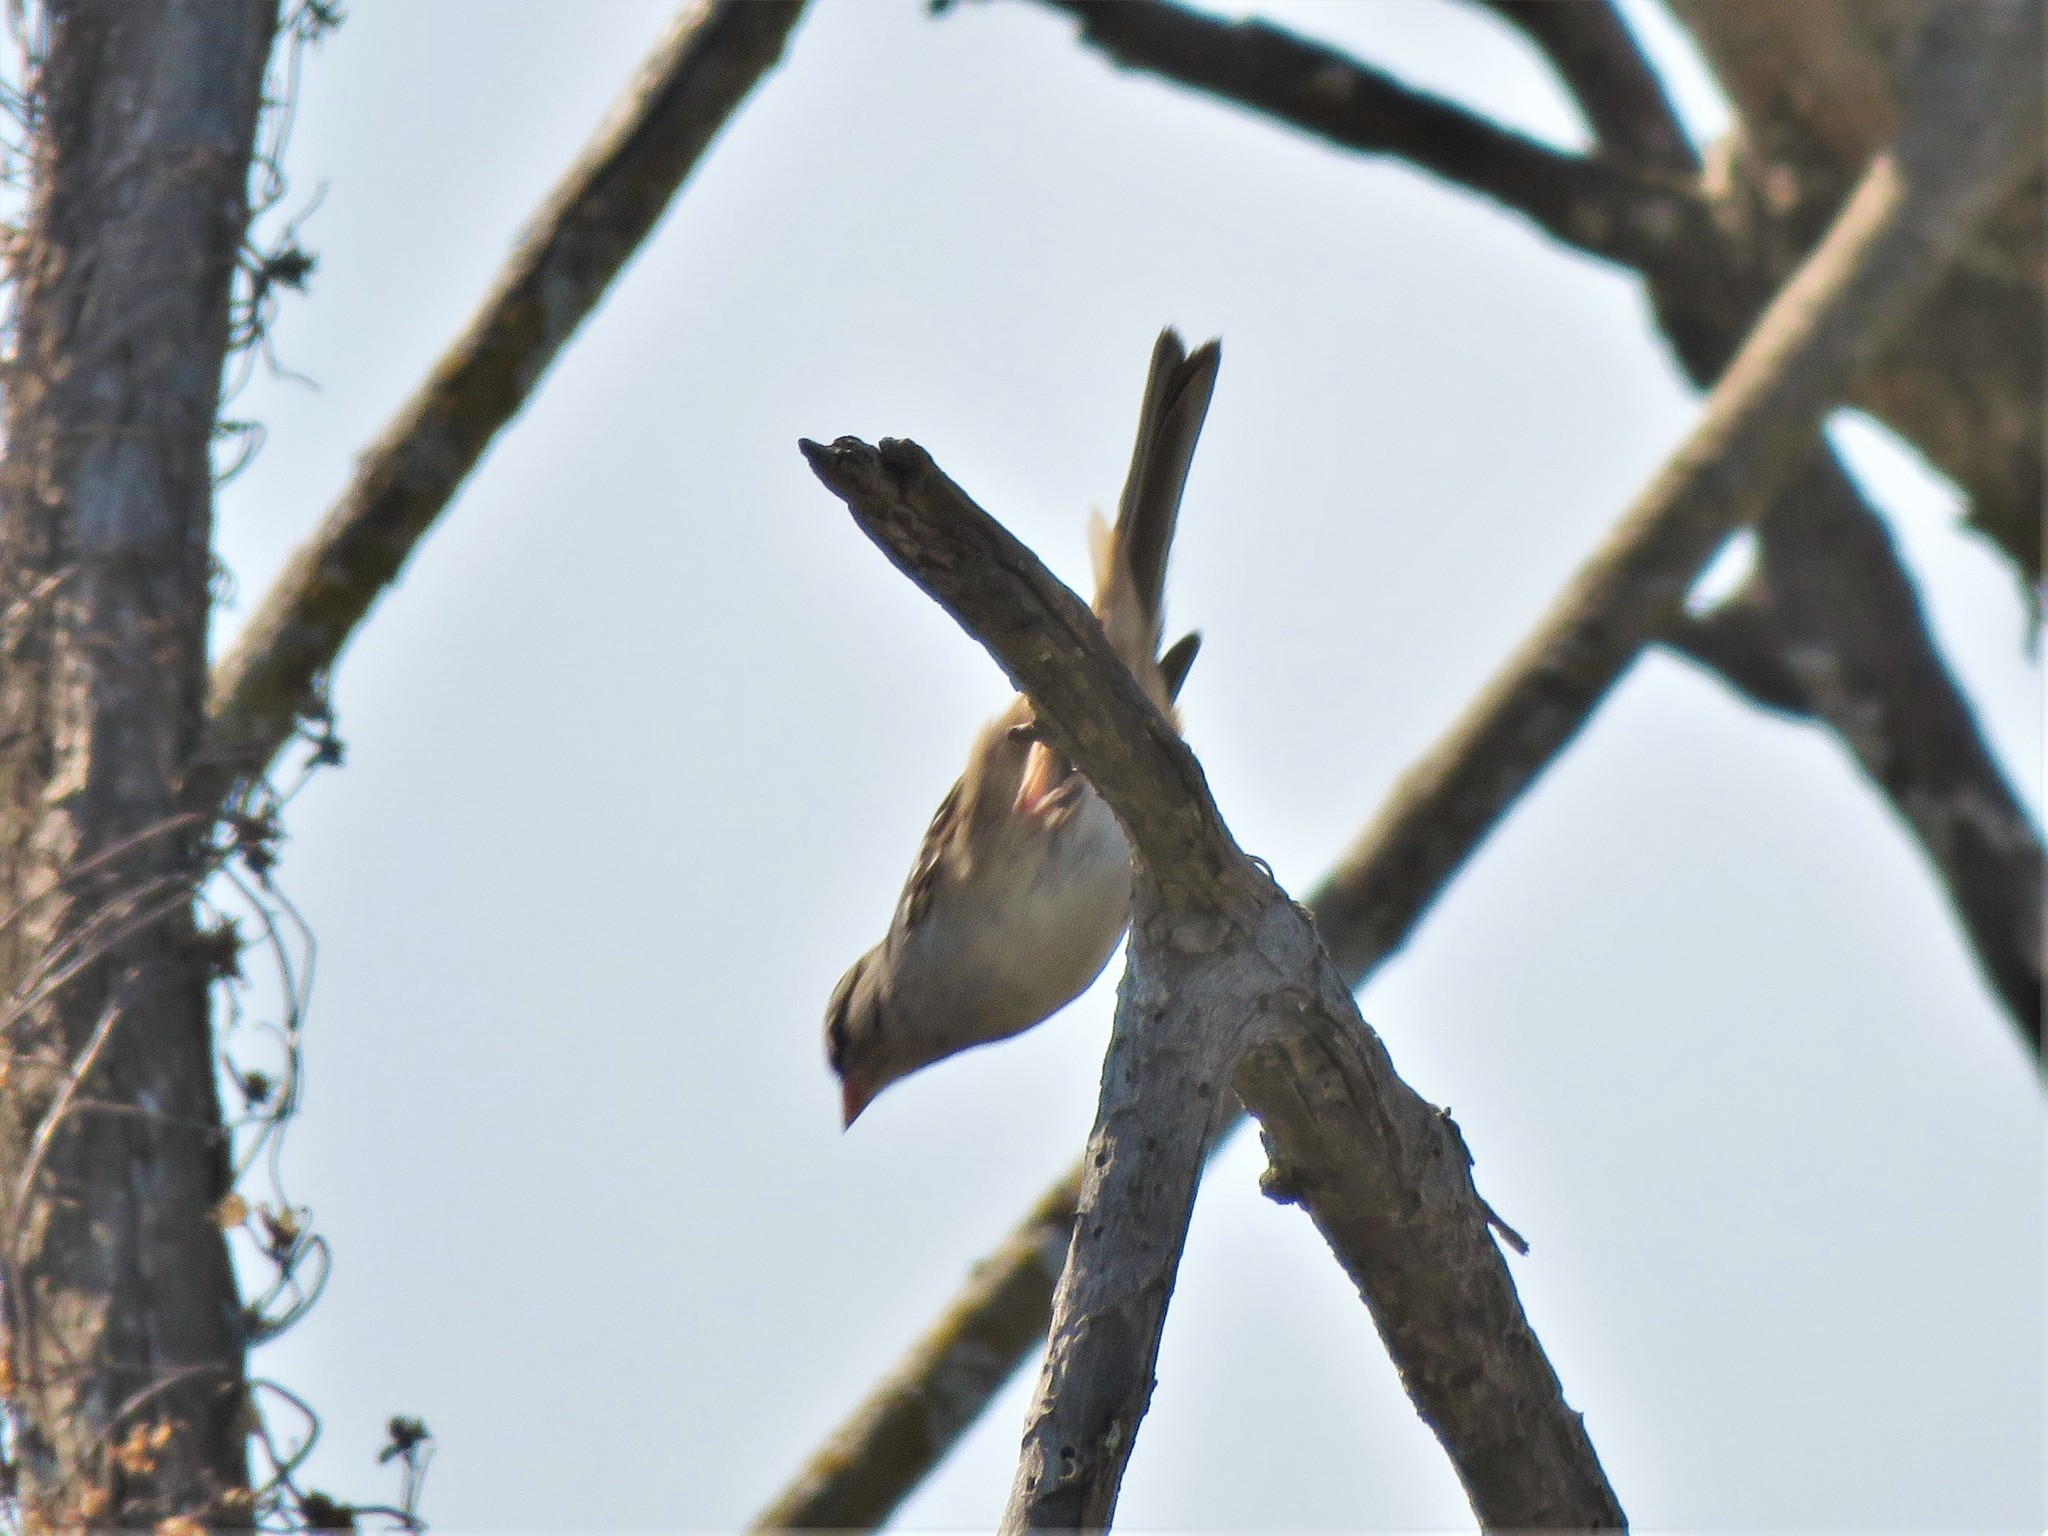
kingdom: Animalia
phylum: Chordata
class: Aves
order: Passeriformes
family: Passerellidae
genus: Zonotrichia
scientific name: Zonotrichia leucophrys
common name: White-crowned sparrow
